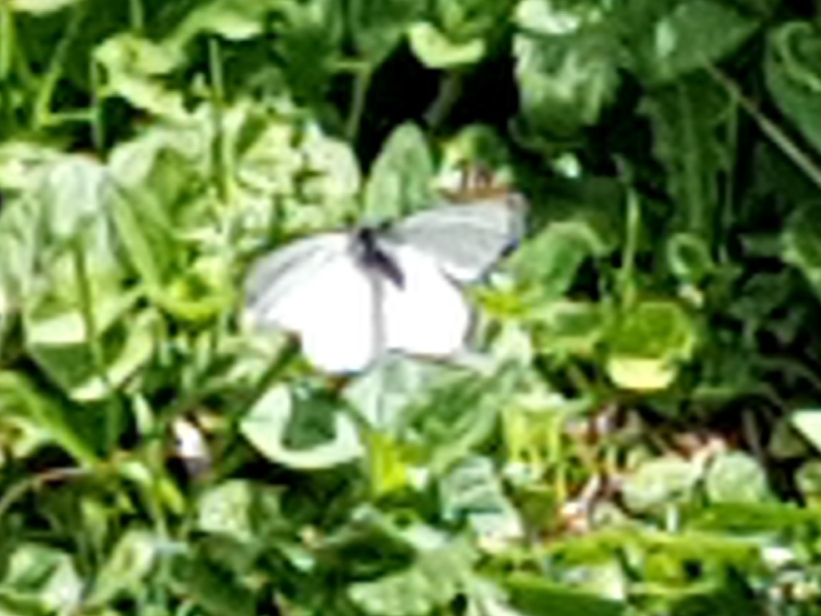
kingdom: Animalia
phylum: Arthropoda
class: Insecta
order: Lepidoptera
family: Pieridae
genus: Pieris
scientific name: Pieris bryoniae
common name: Mountain green-veined white
